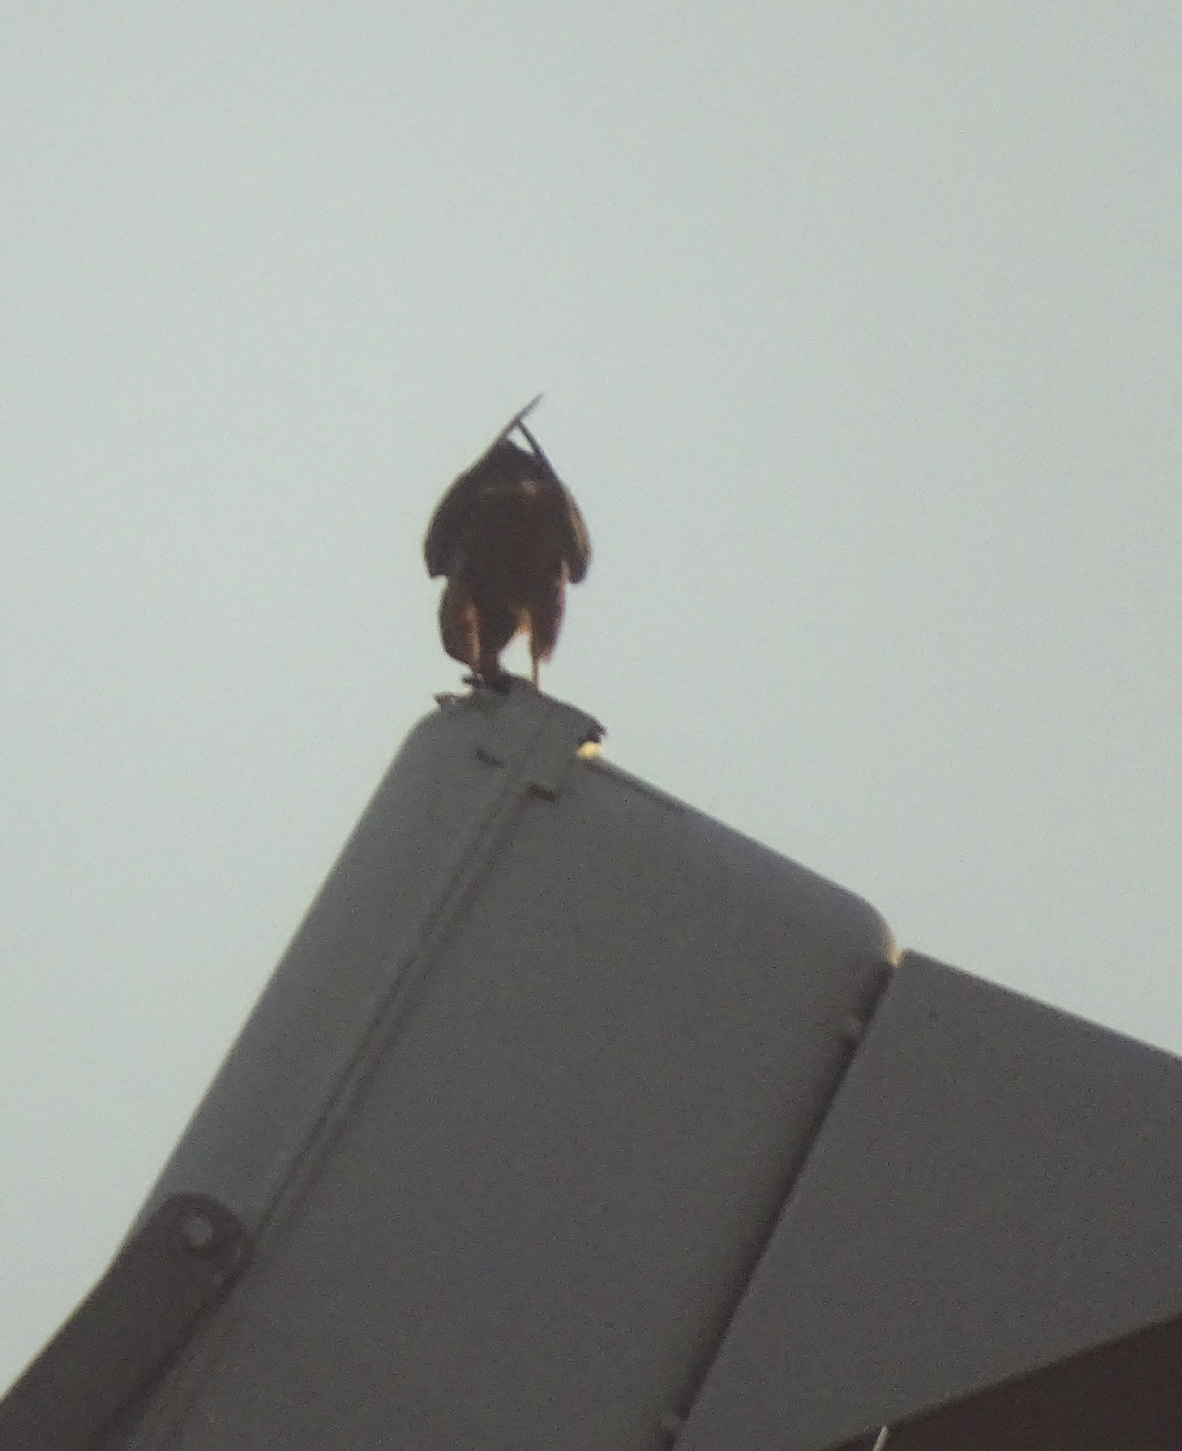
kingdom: Animalia
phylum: Chordata
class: Aves
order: Falconiformes
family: Falconidae
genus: Falco
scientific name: Falco rufigularis
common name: Bat falcon
